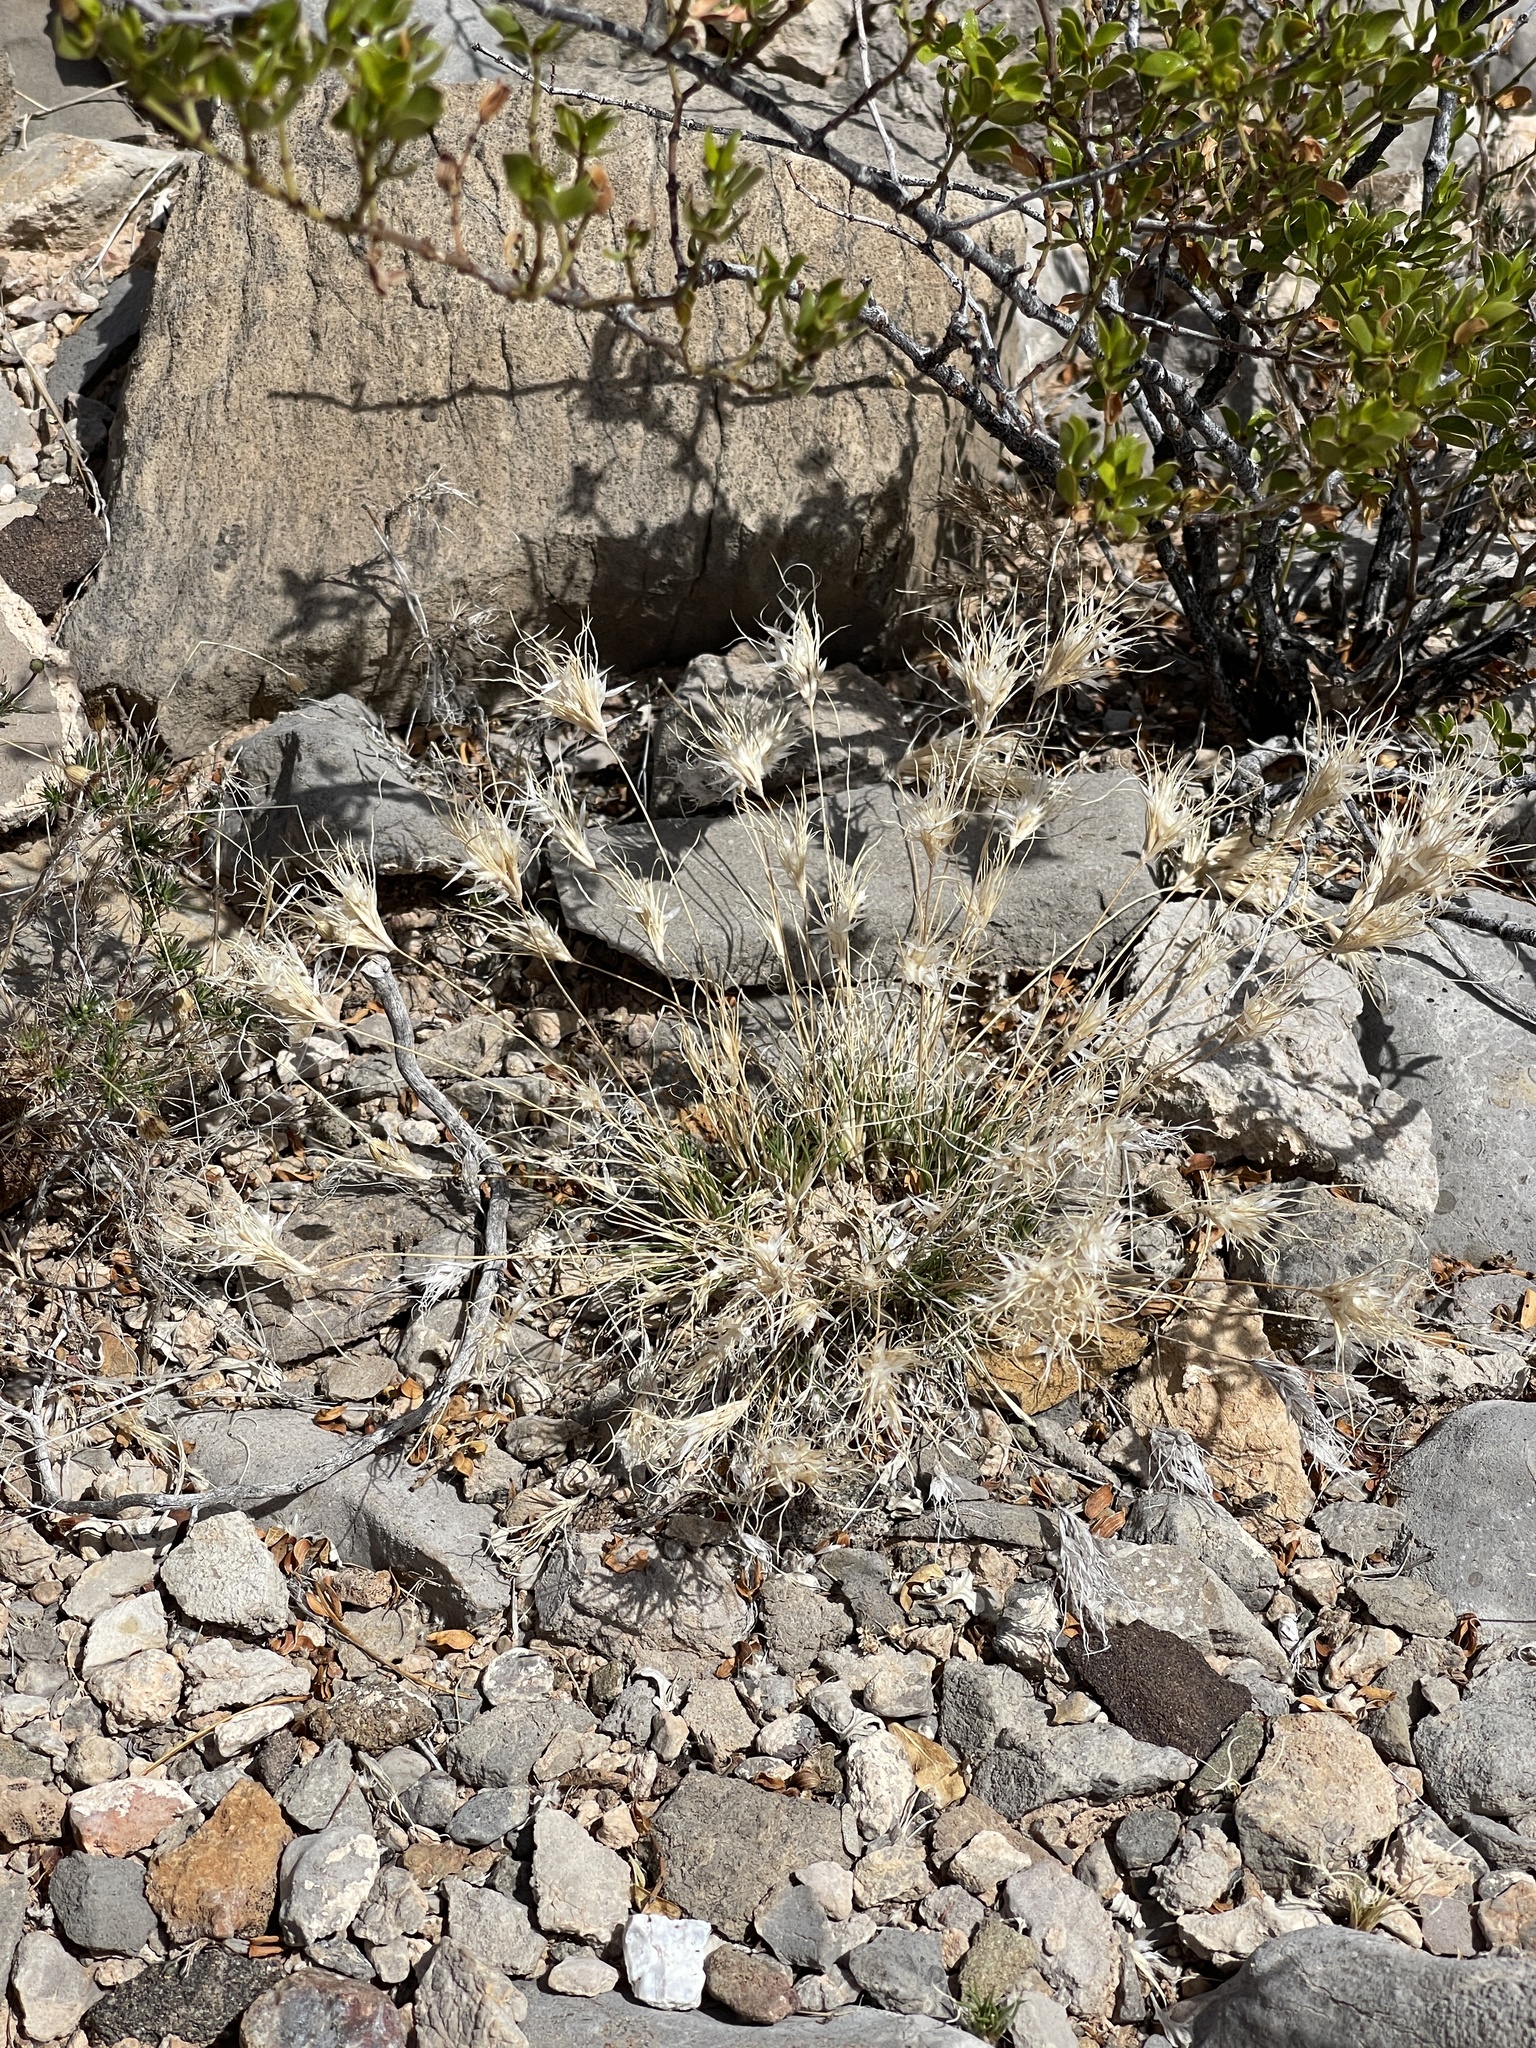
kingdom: Plantae
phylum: Tracheophyta
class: Liliopsida
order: Poales
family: Poaceae
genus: Dasyochloa
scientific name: Dasyochloa pulchella
